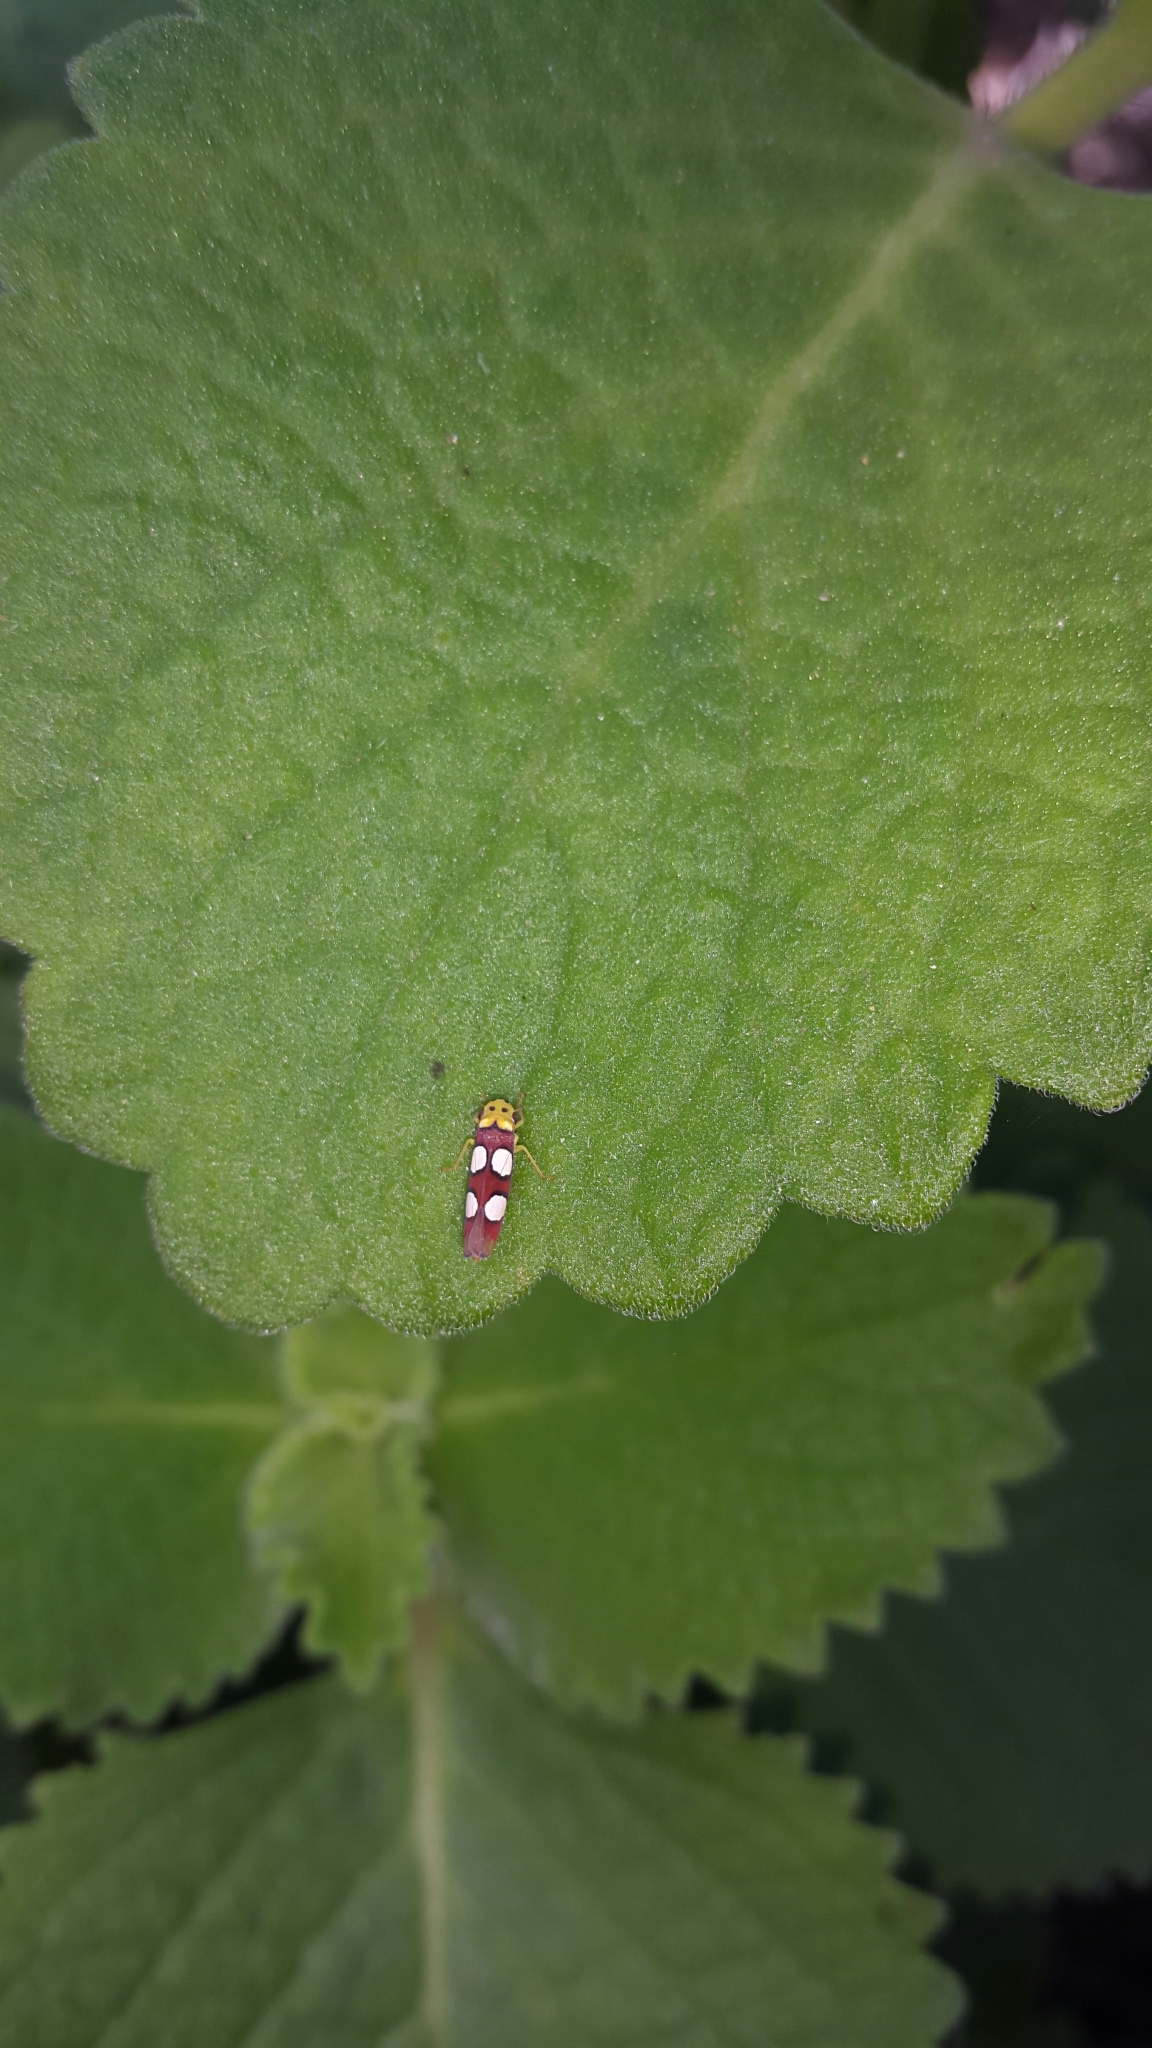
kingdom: Animalia
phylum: Arthropoda
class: Insecta
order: Hemiptera
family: Cicadellidae
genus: Erythrogonia
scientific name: Erythrogonia laudata
